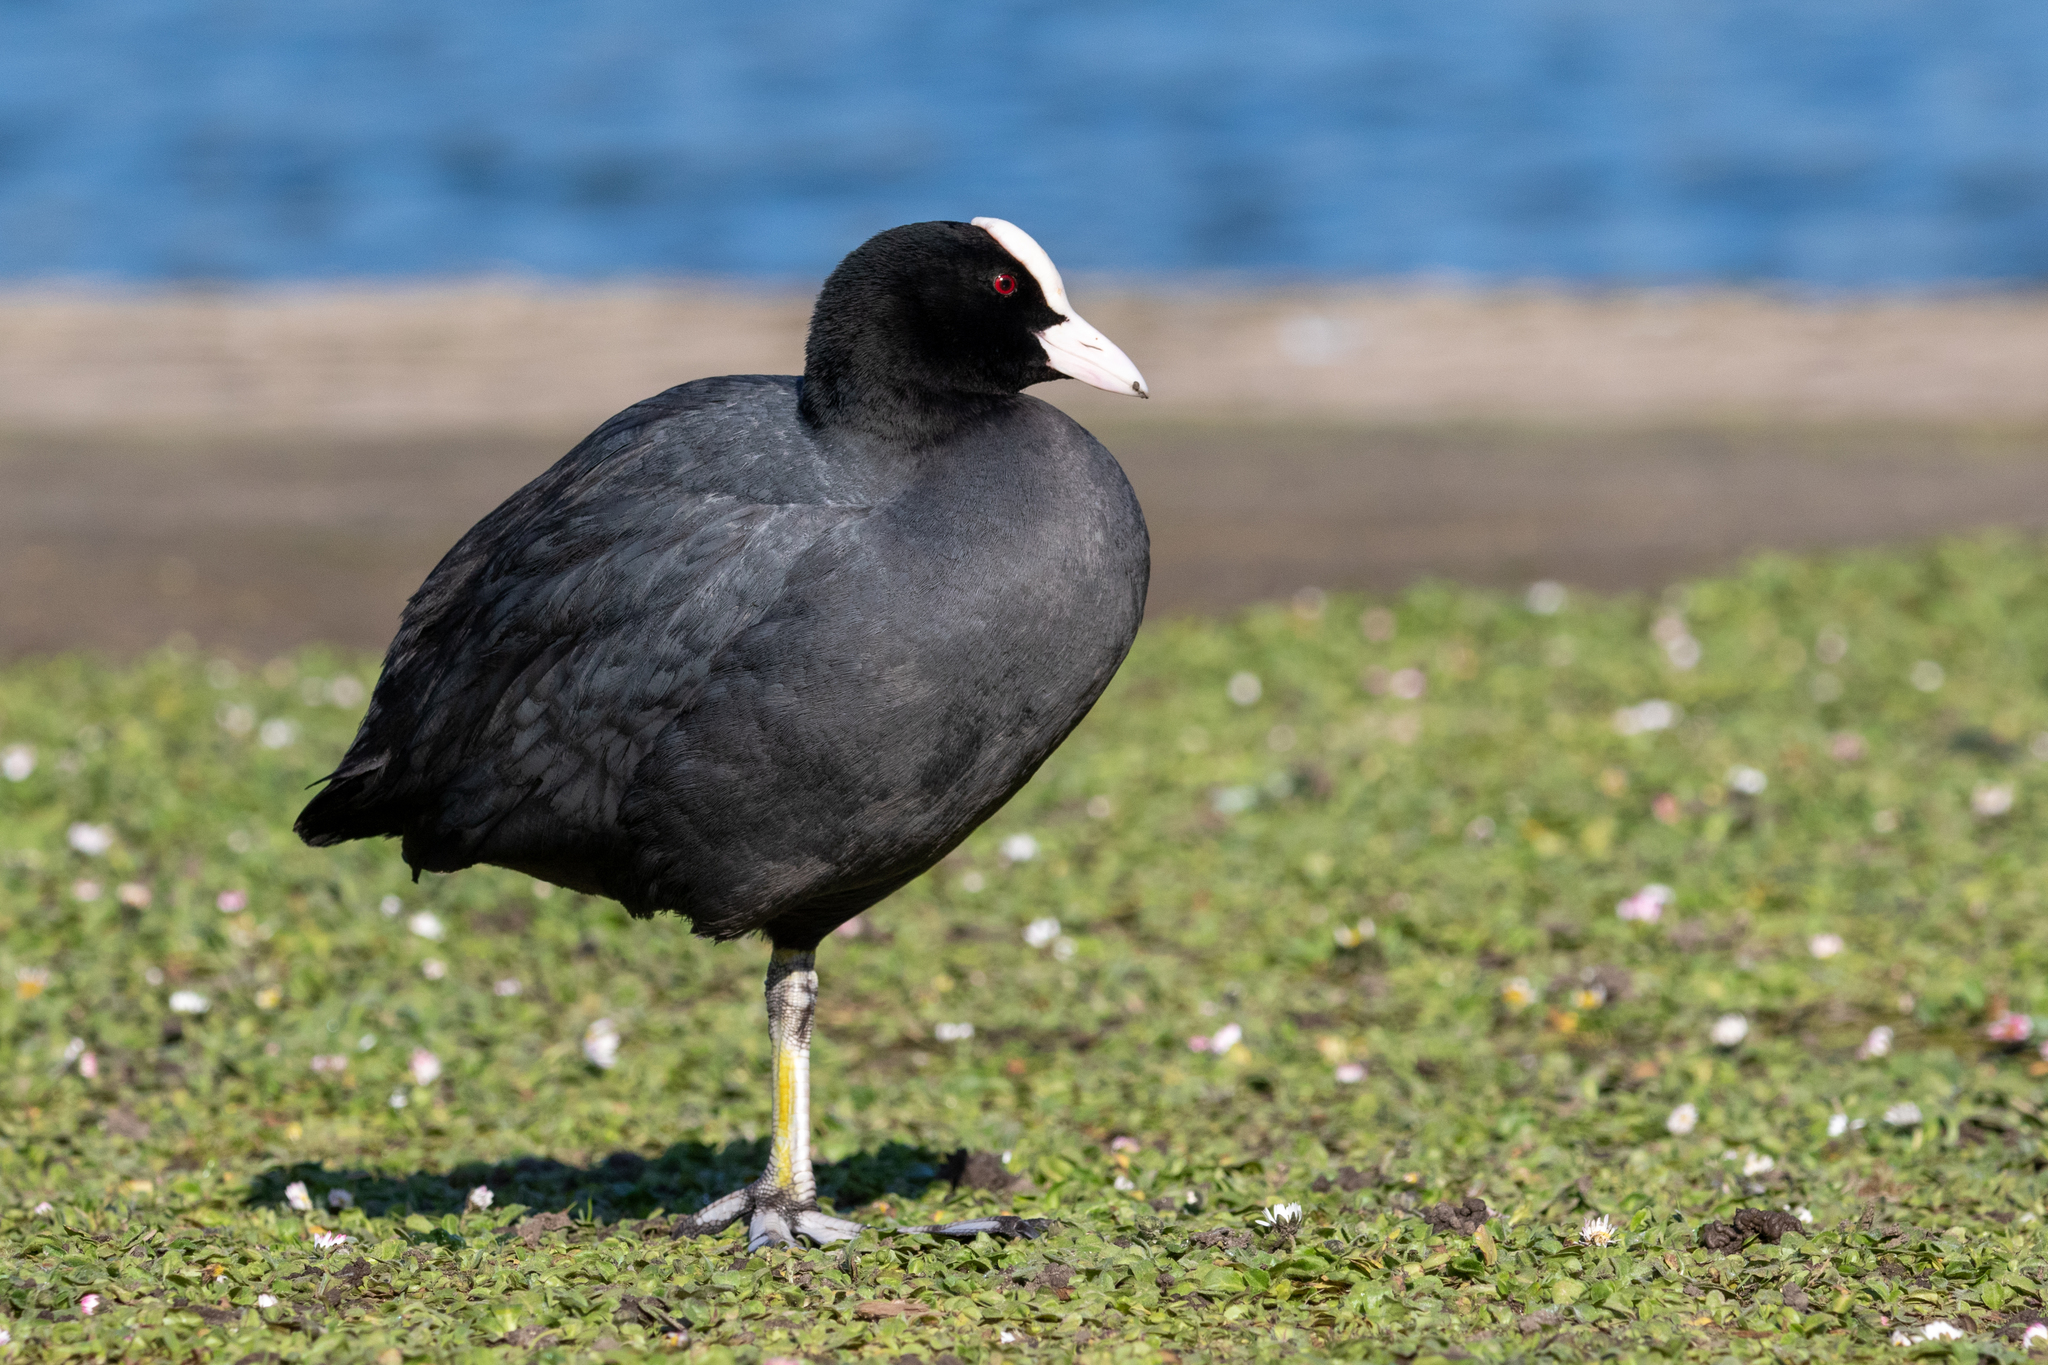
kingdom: Animalia
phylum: Chordata
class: Aves
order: Gruiformes
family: Rallidae
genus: Fulica
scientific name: Fulica atra
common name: Eurasian coot
